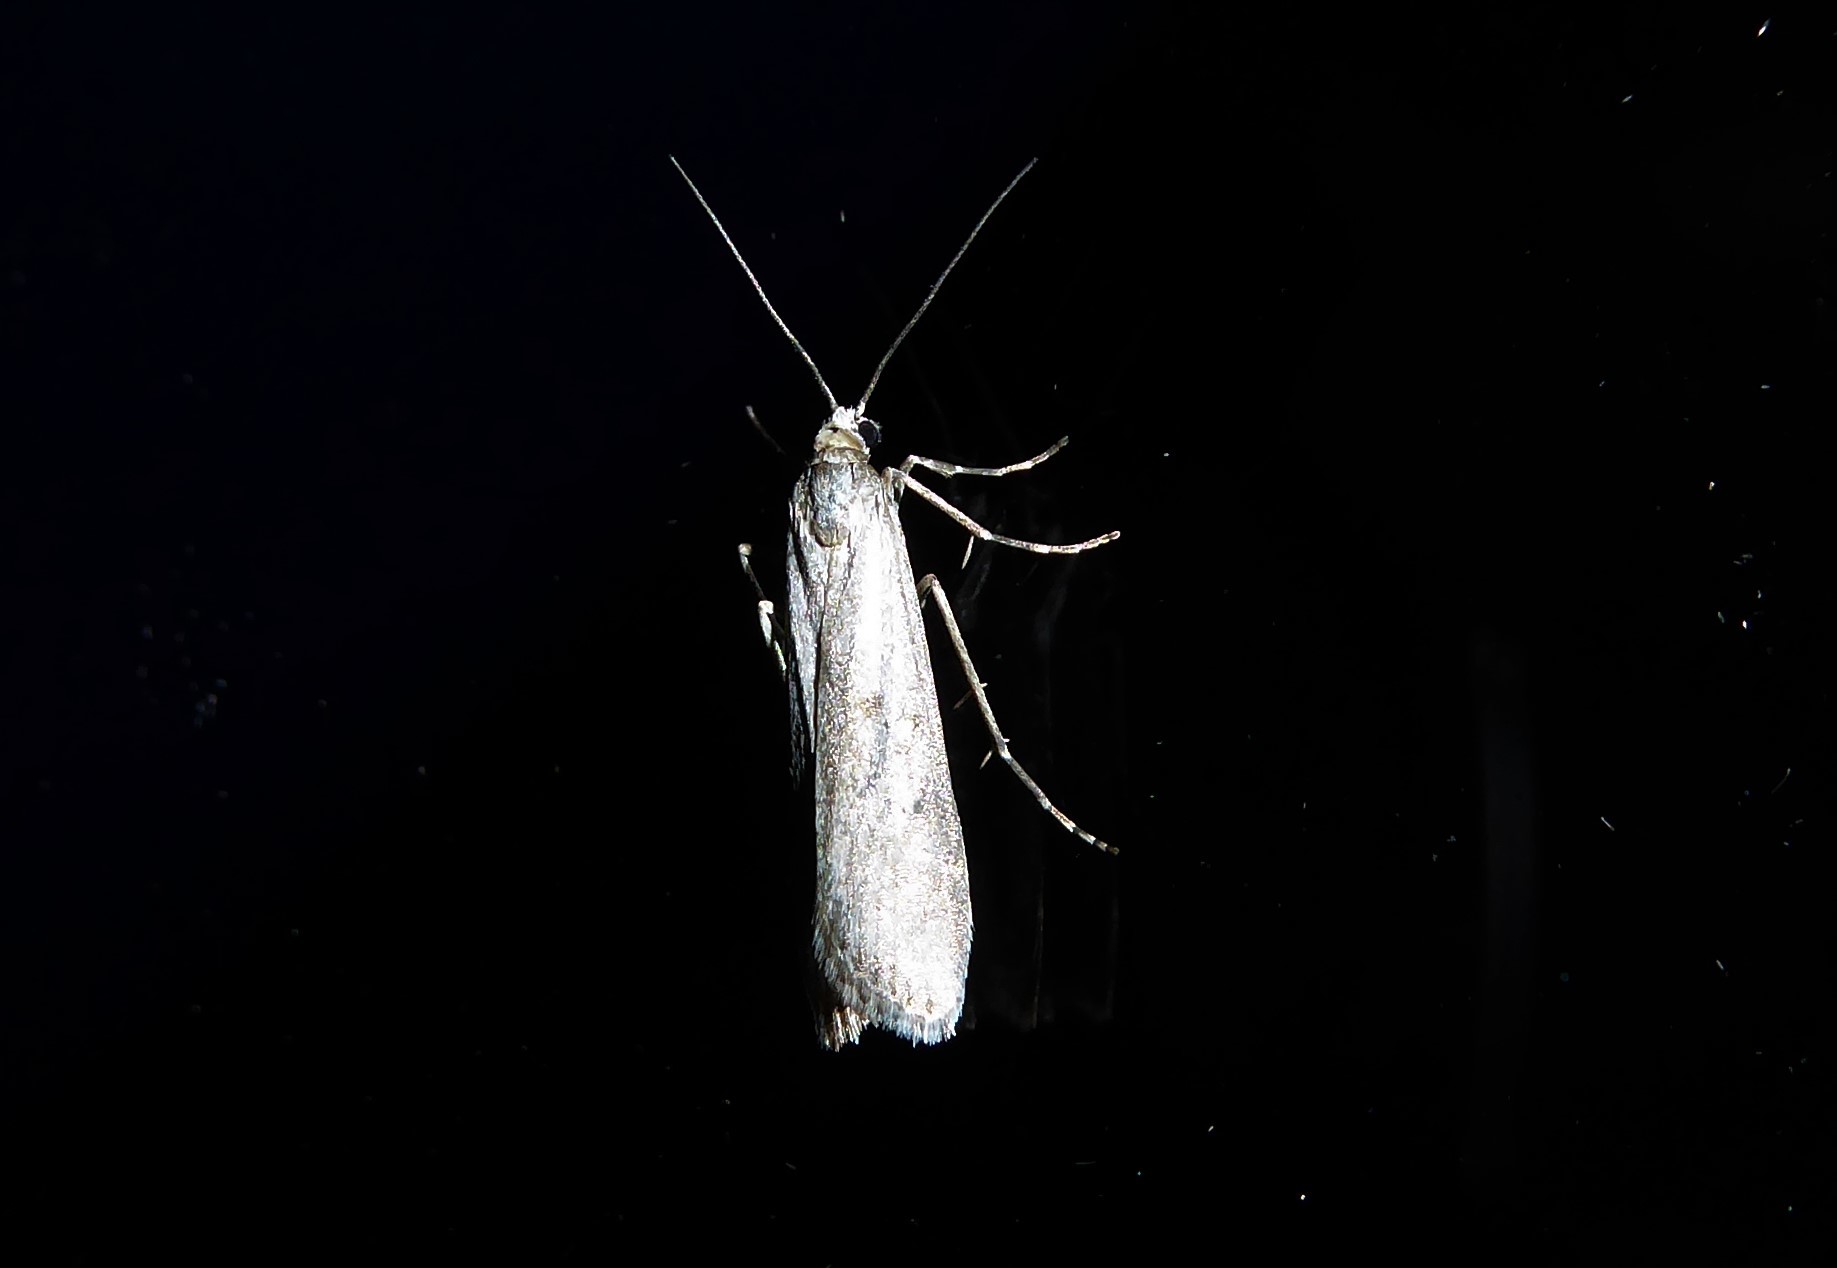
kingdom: Animalia
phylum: Arthropoda
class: Insecta
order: Lepidoptera
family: Crambidae
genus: Eudonia
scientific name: Eudonia leptalea
